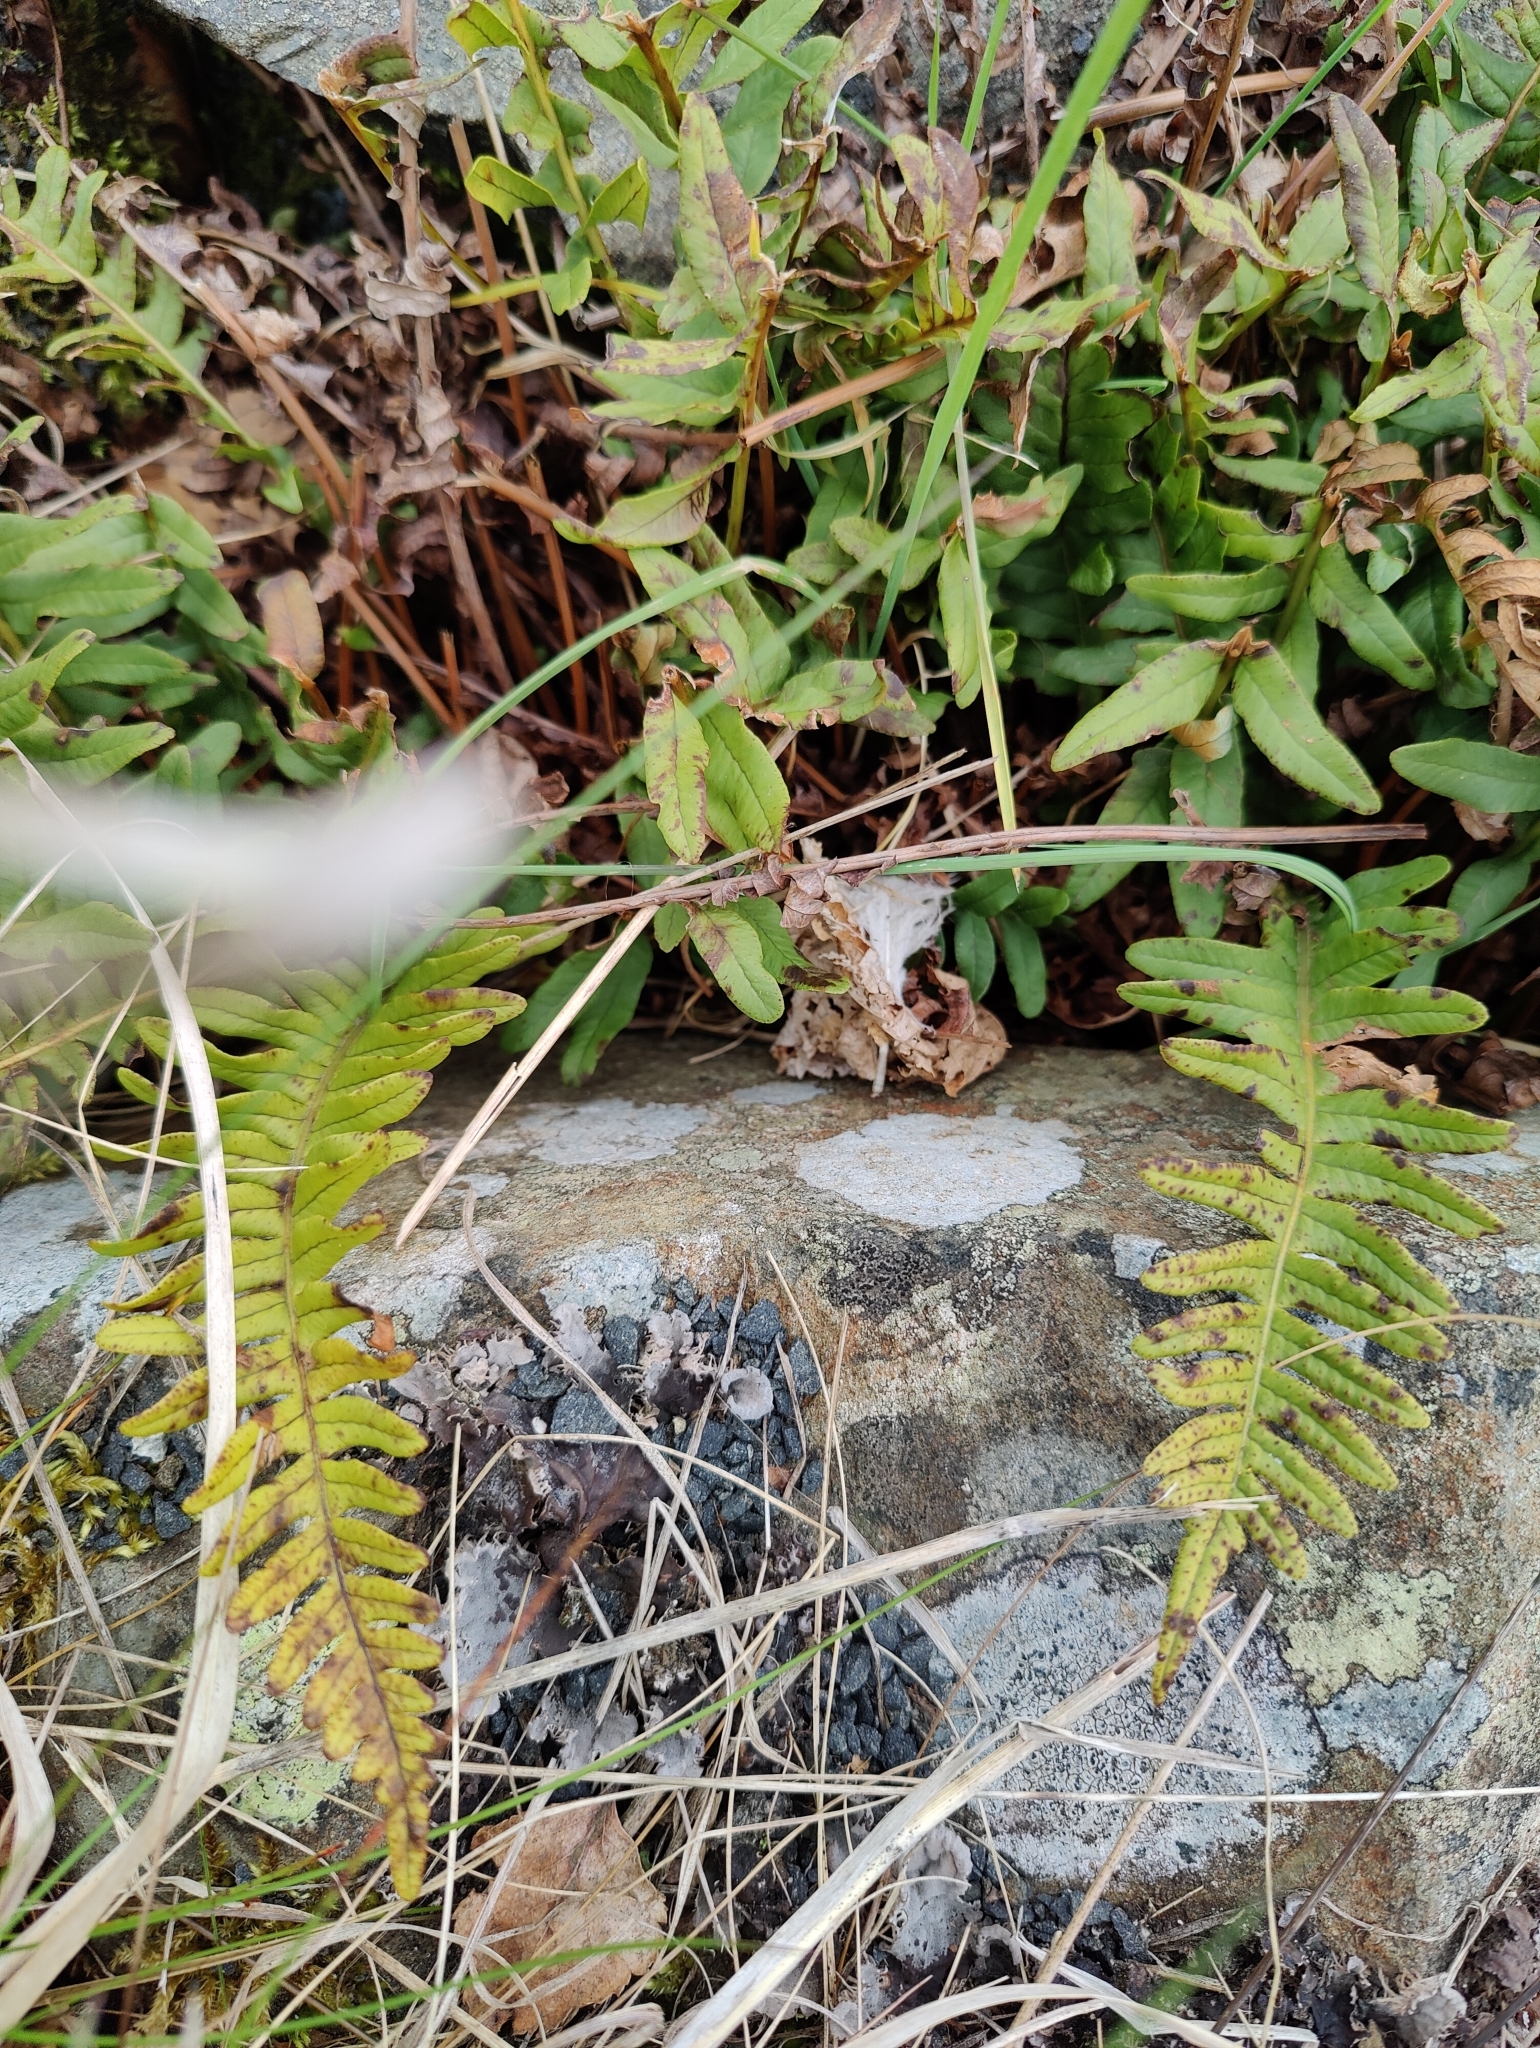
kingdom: Plantae
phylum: Tracheophyta
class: Polypodiopsida
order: Polypodiales
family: Polypodiaceae
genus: Polypodium
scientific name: Polypodium vulgare
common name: Common polypody
